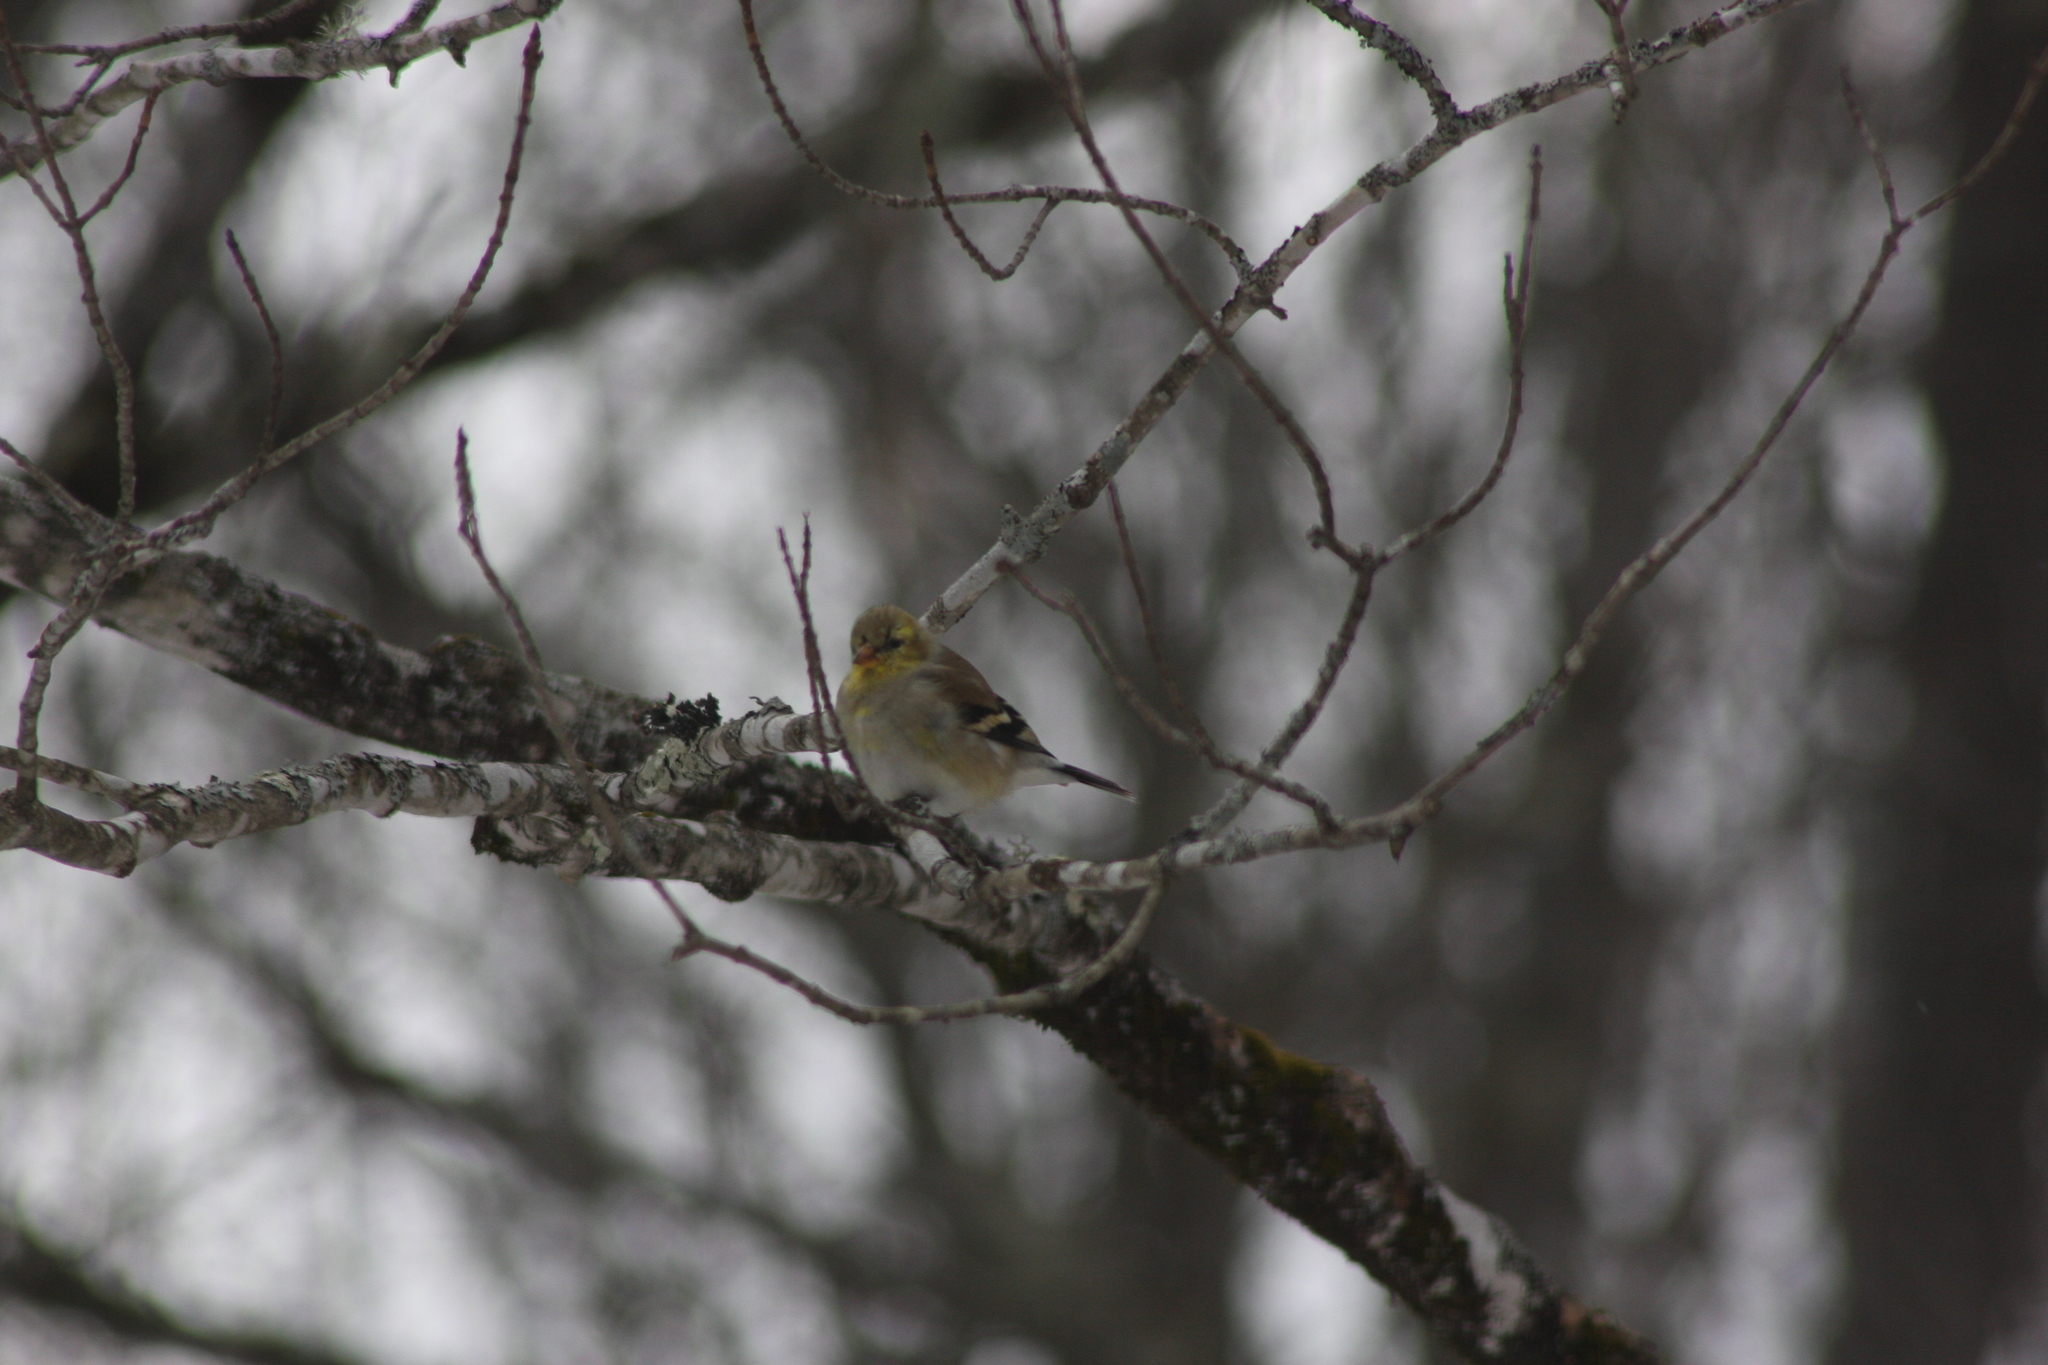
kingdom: Animalia
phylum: Chordata
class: Aves
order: Passeriformes
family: Fringillidae
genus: Spinus
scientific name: Spinus tristis
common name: American goldfinch
